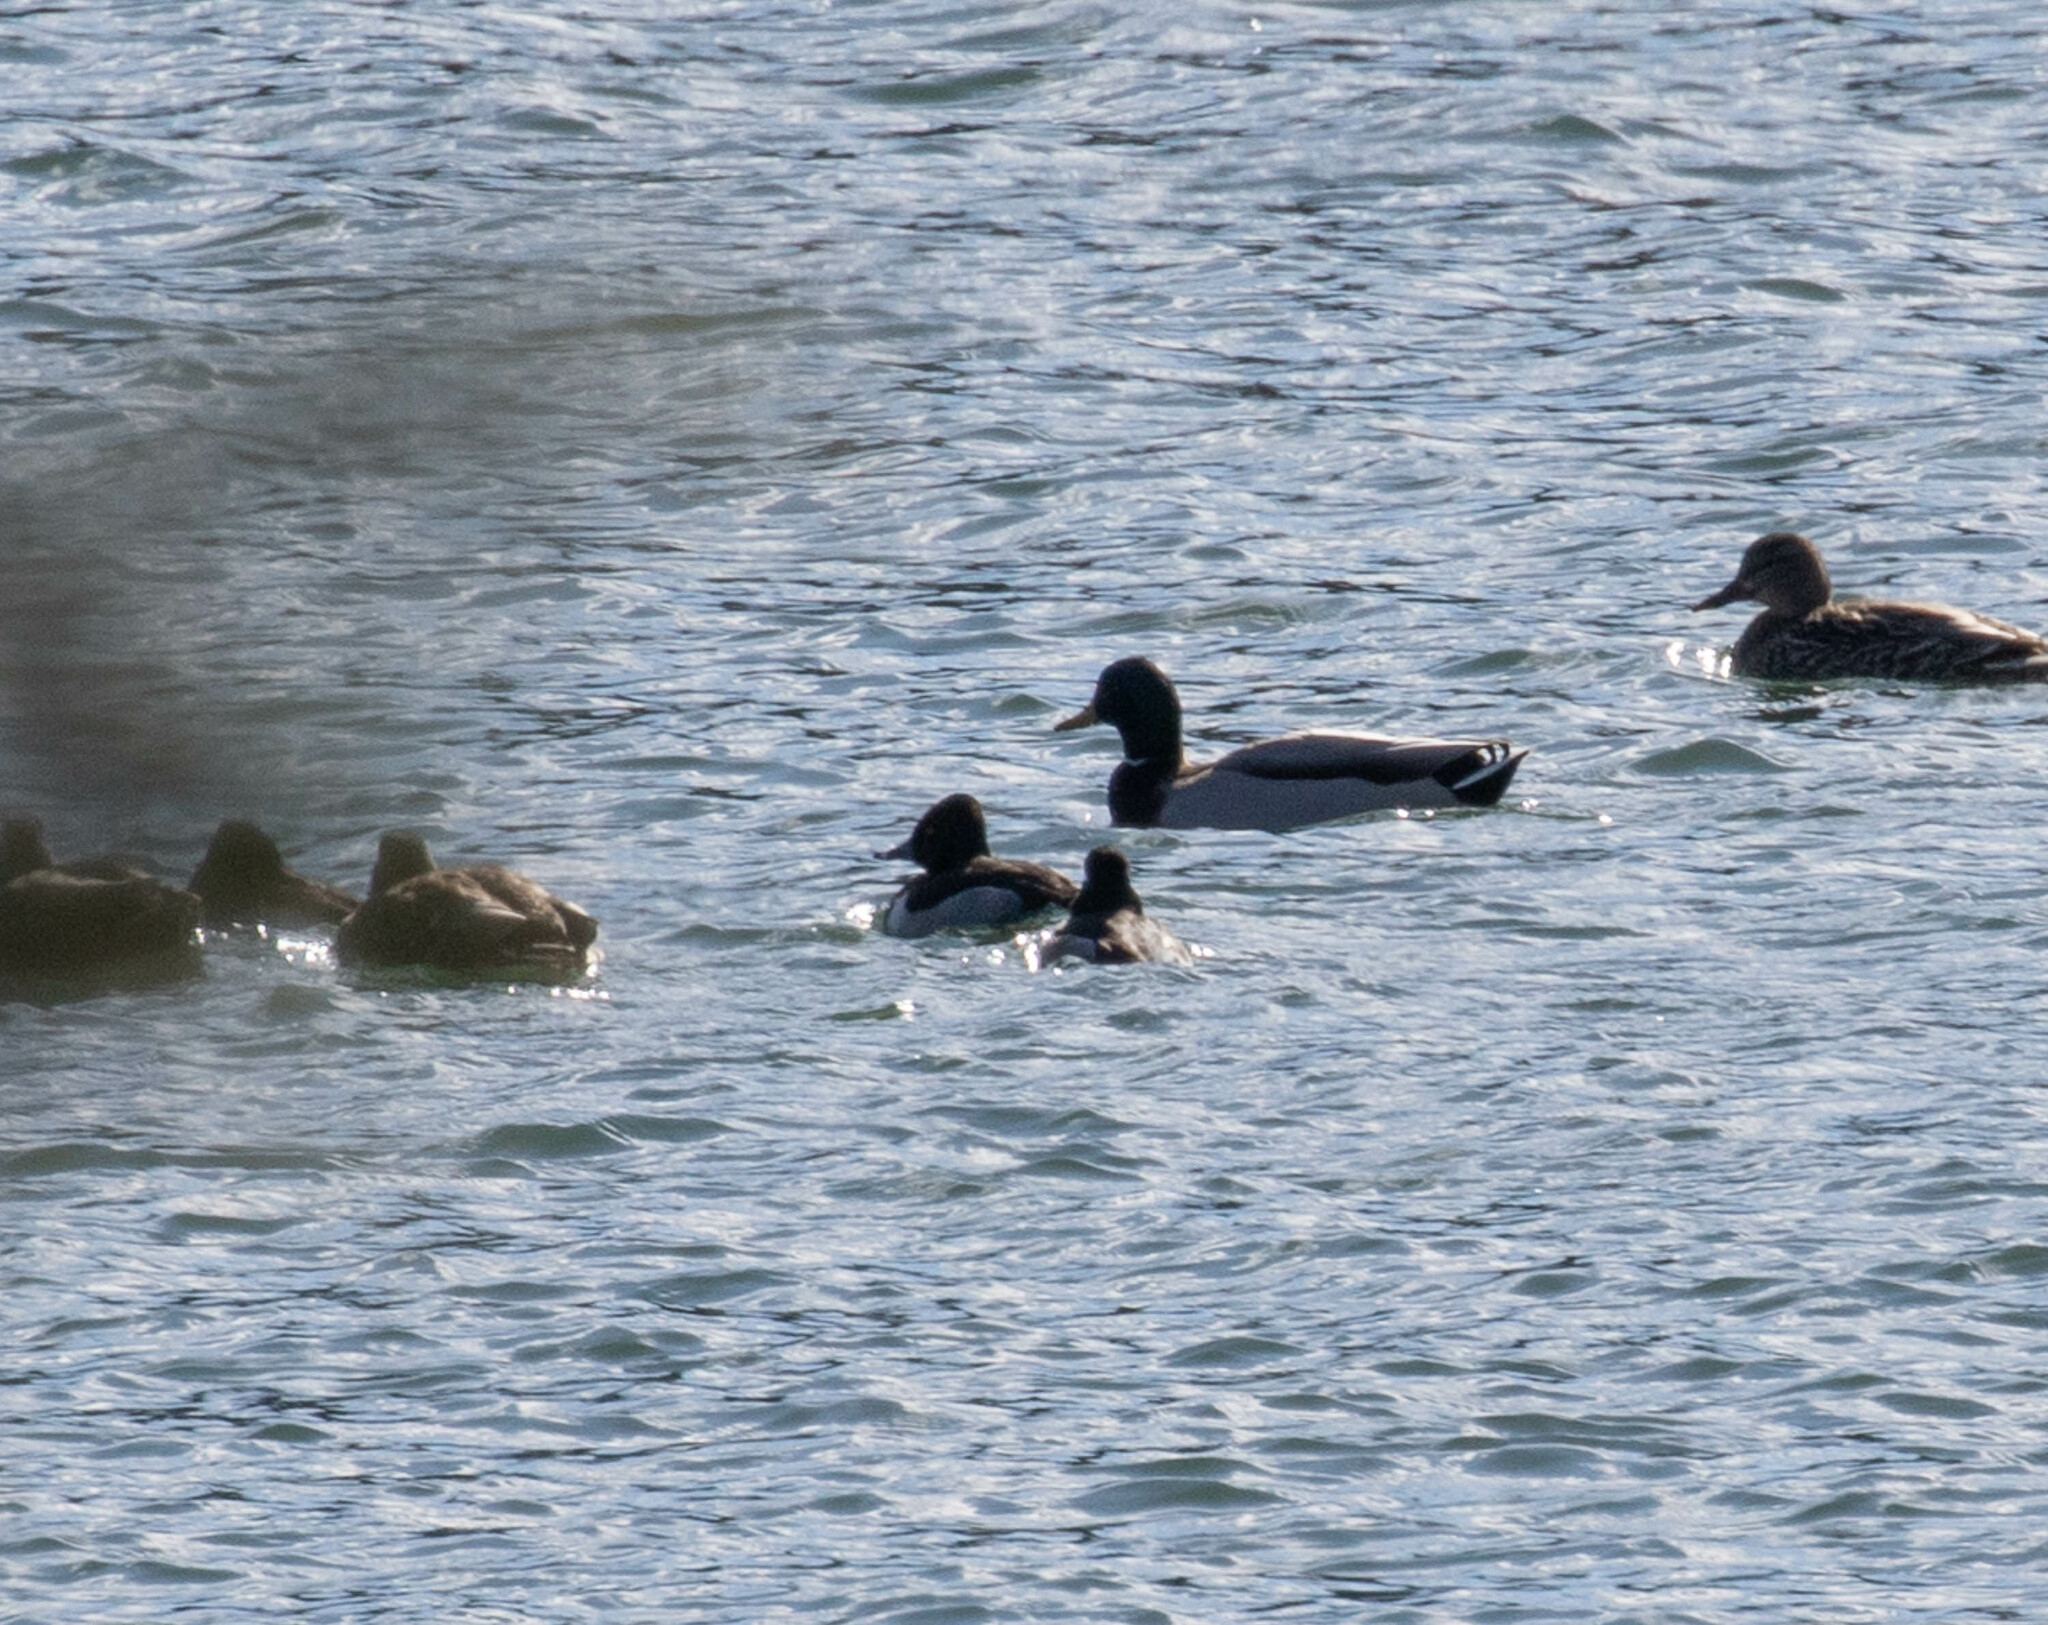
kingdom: Animalia
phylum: Chordata
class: Aves
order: Anseriformes
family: Anatidae
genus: Aythya
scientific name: Aythya collaris
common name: Ring-necked duck
